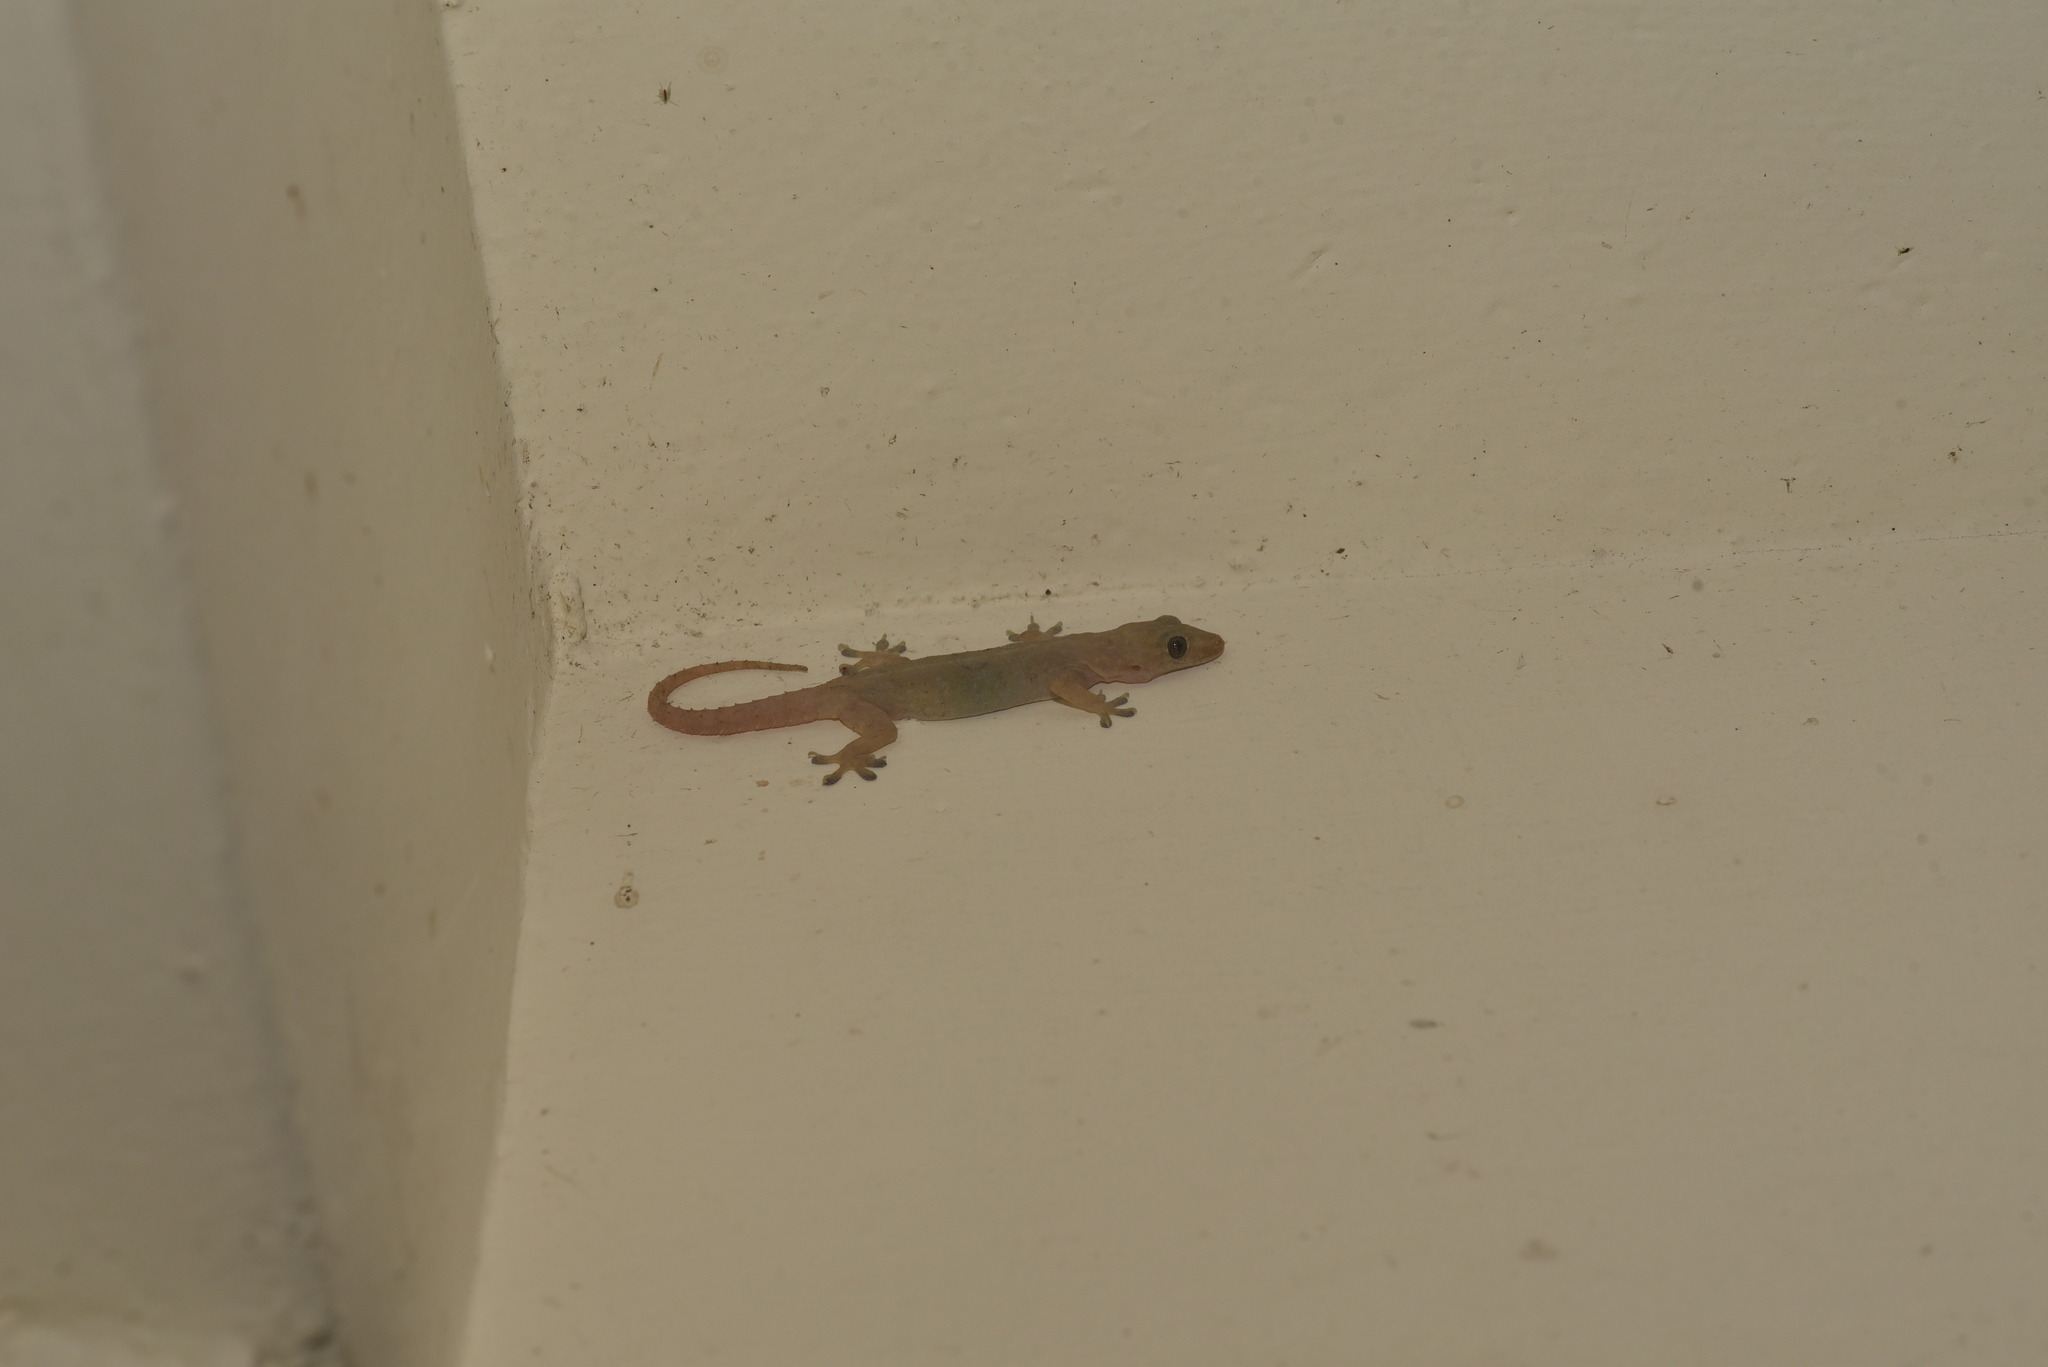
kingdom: Animalia
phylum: Chordata
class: Squamata
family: Gekkonidae
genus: Hemidactylus
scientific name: Hemidactylus frenatus
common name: Common house gecko
